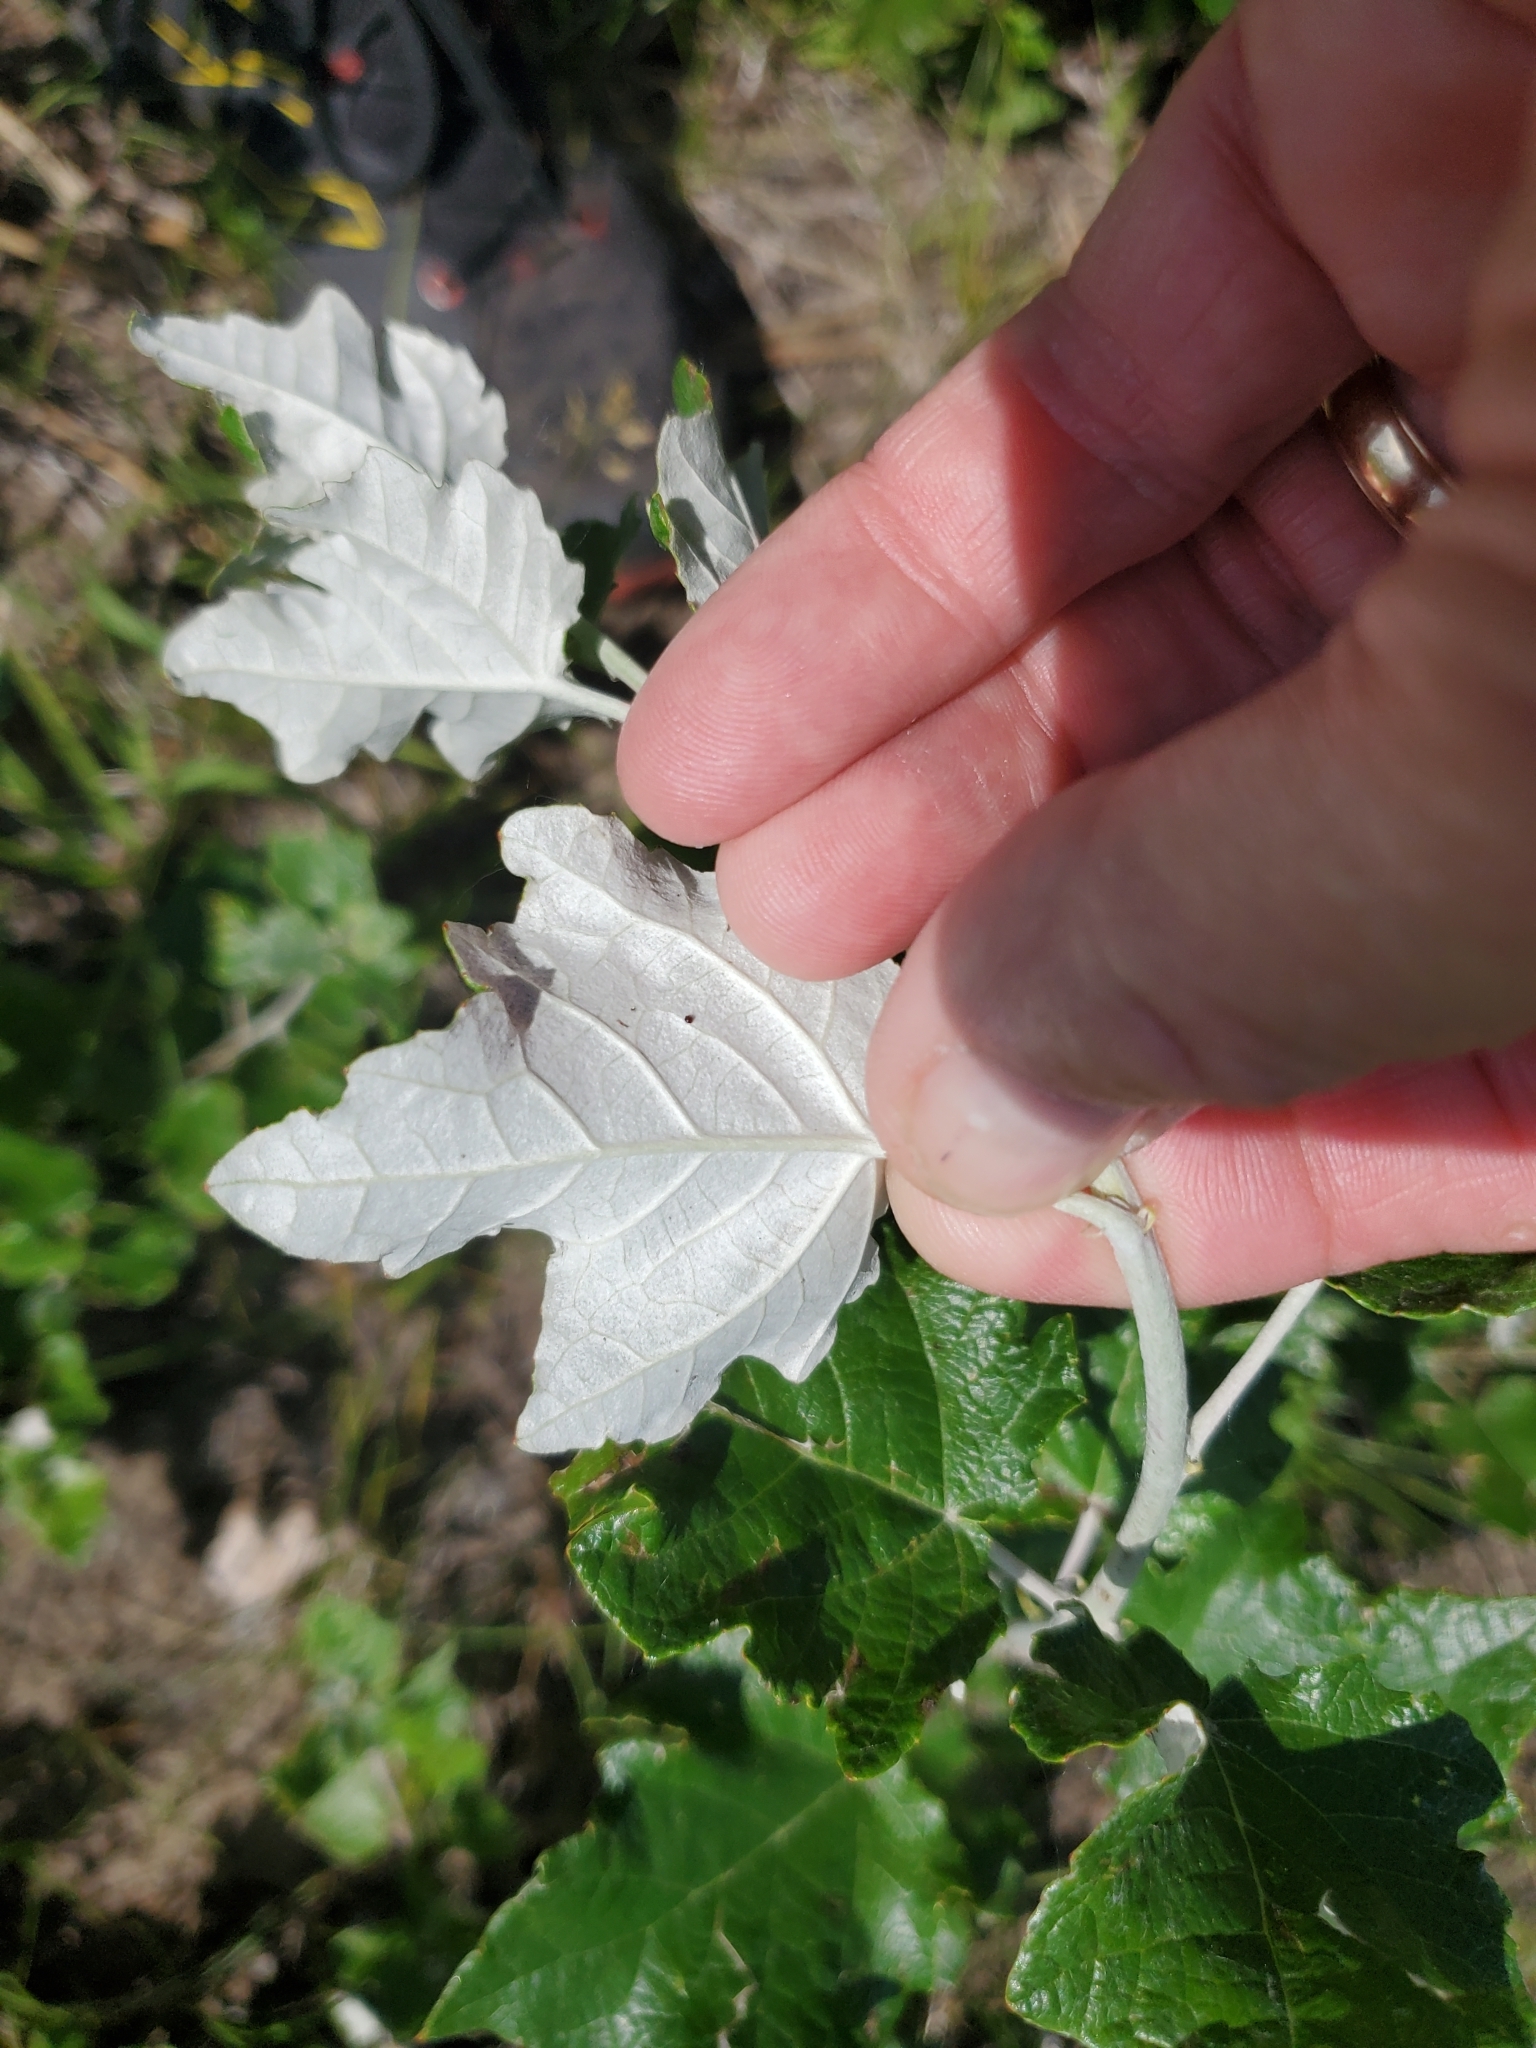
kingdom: Plantae
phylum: Tracheophyta
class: Magnoliopsida
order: Malpighiales
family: Salicaceae
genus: Populus
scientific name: Populus alba
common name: White poplar
